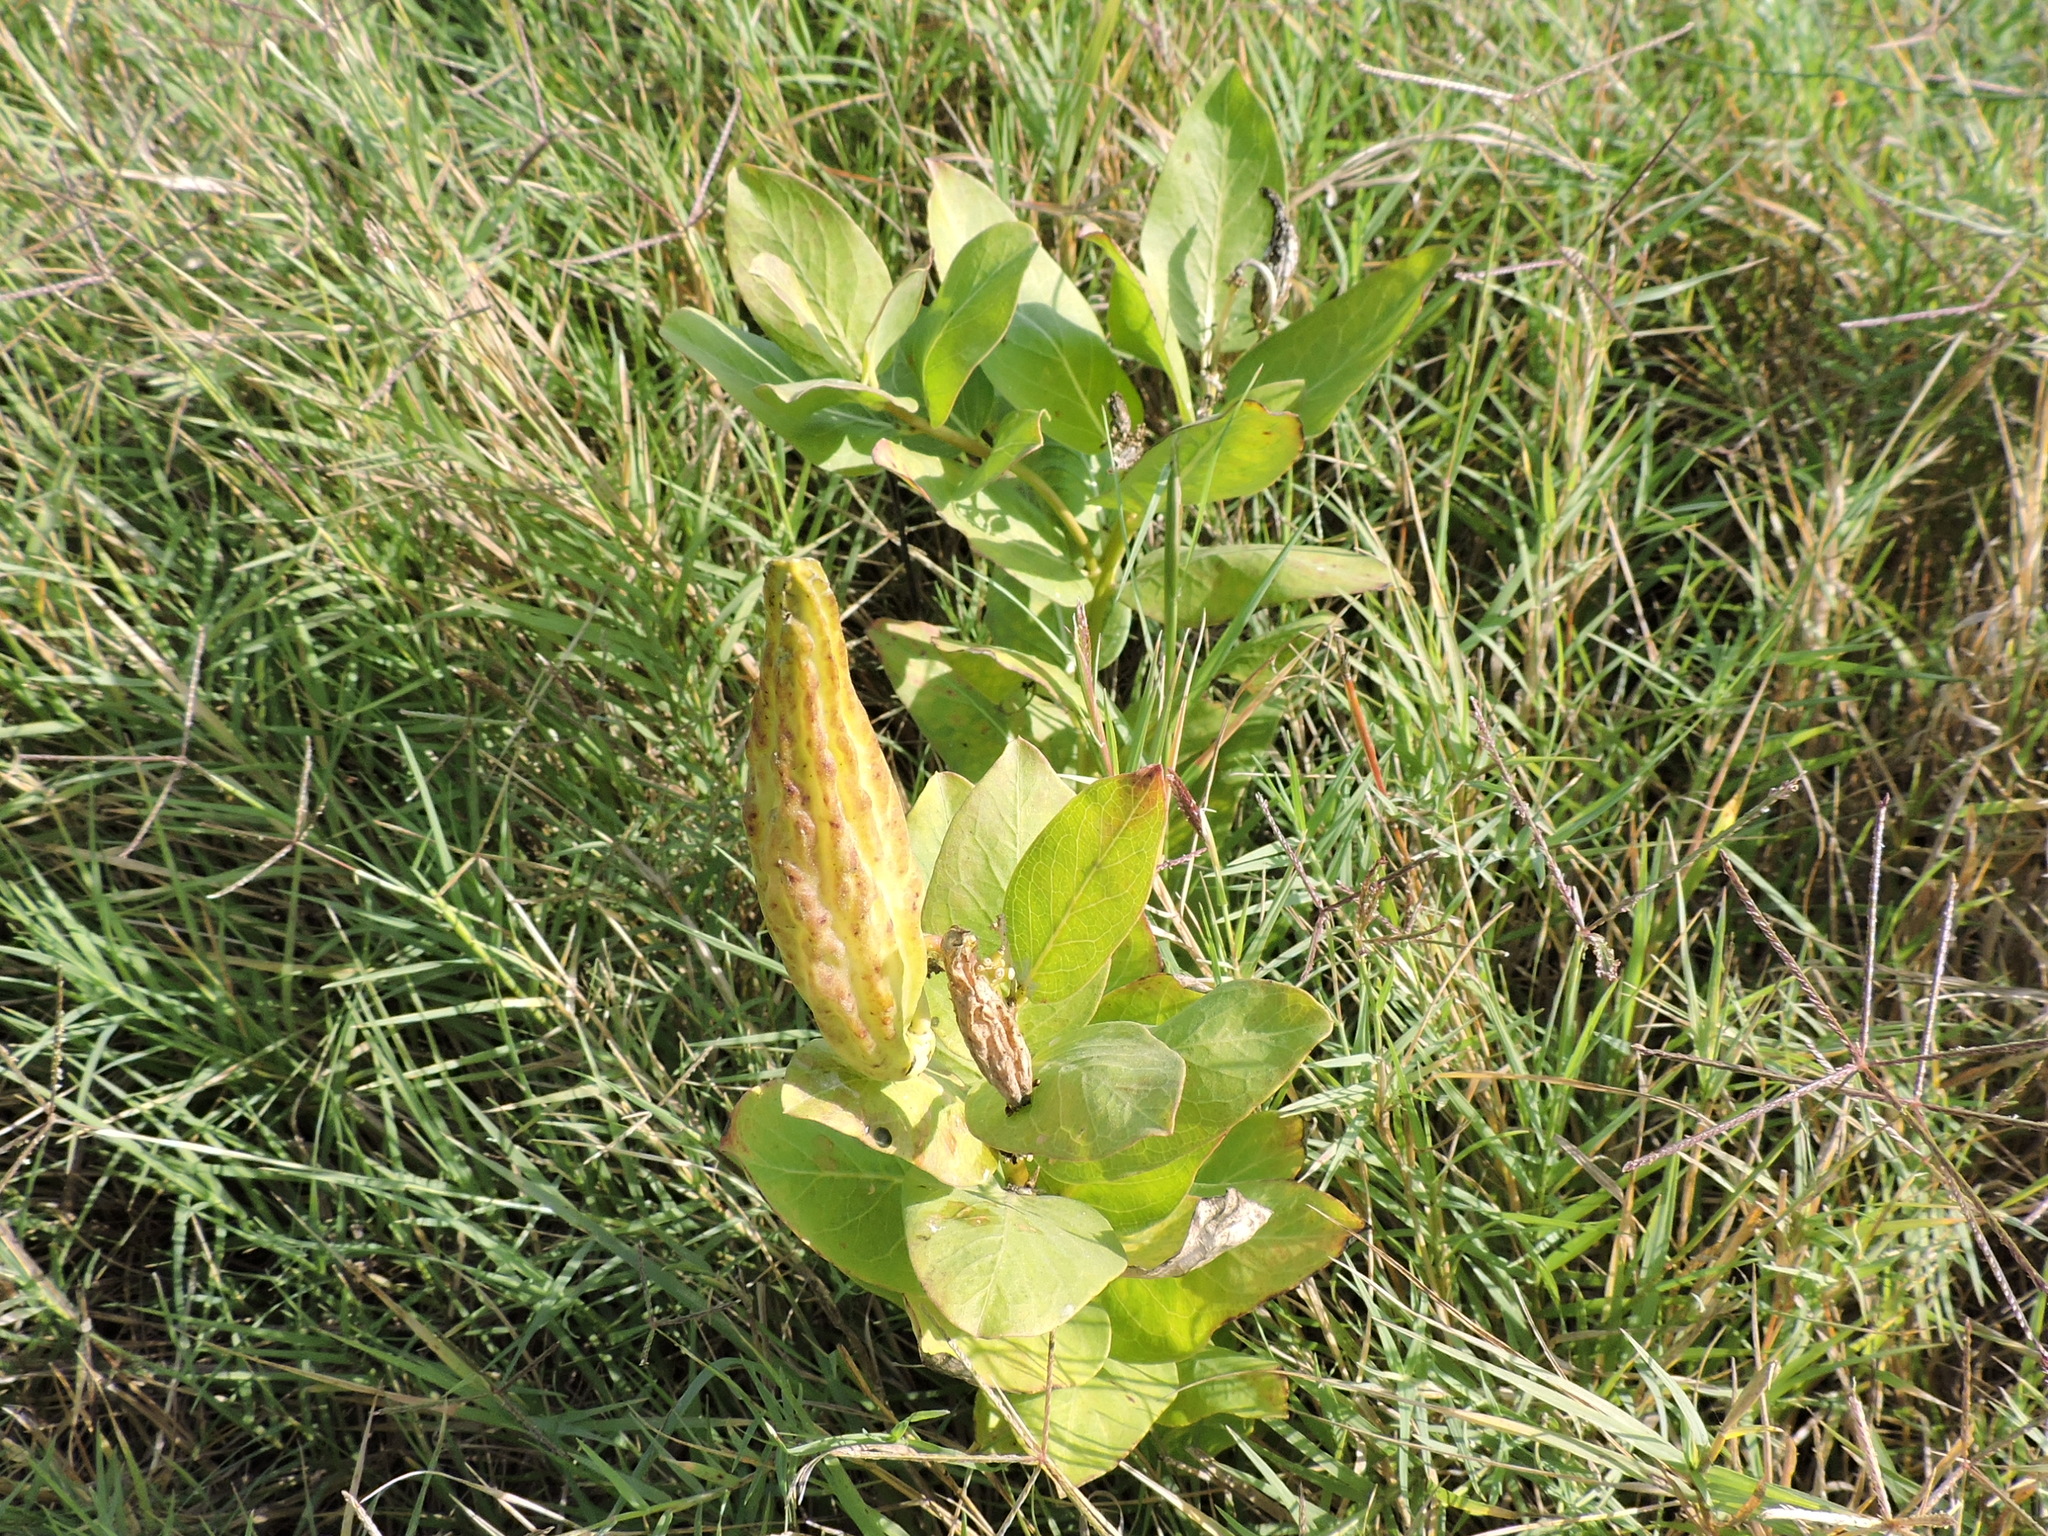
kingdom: Plantae
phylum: Tracheophyta
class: Magnoliopsida
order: Gentianales
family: Apocynaceae
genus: Asclepias
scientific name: Asclepias viridis
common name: Antelope-horns
